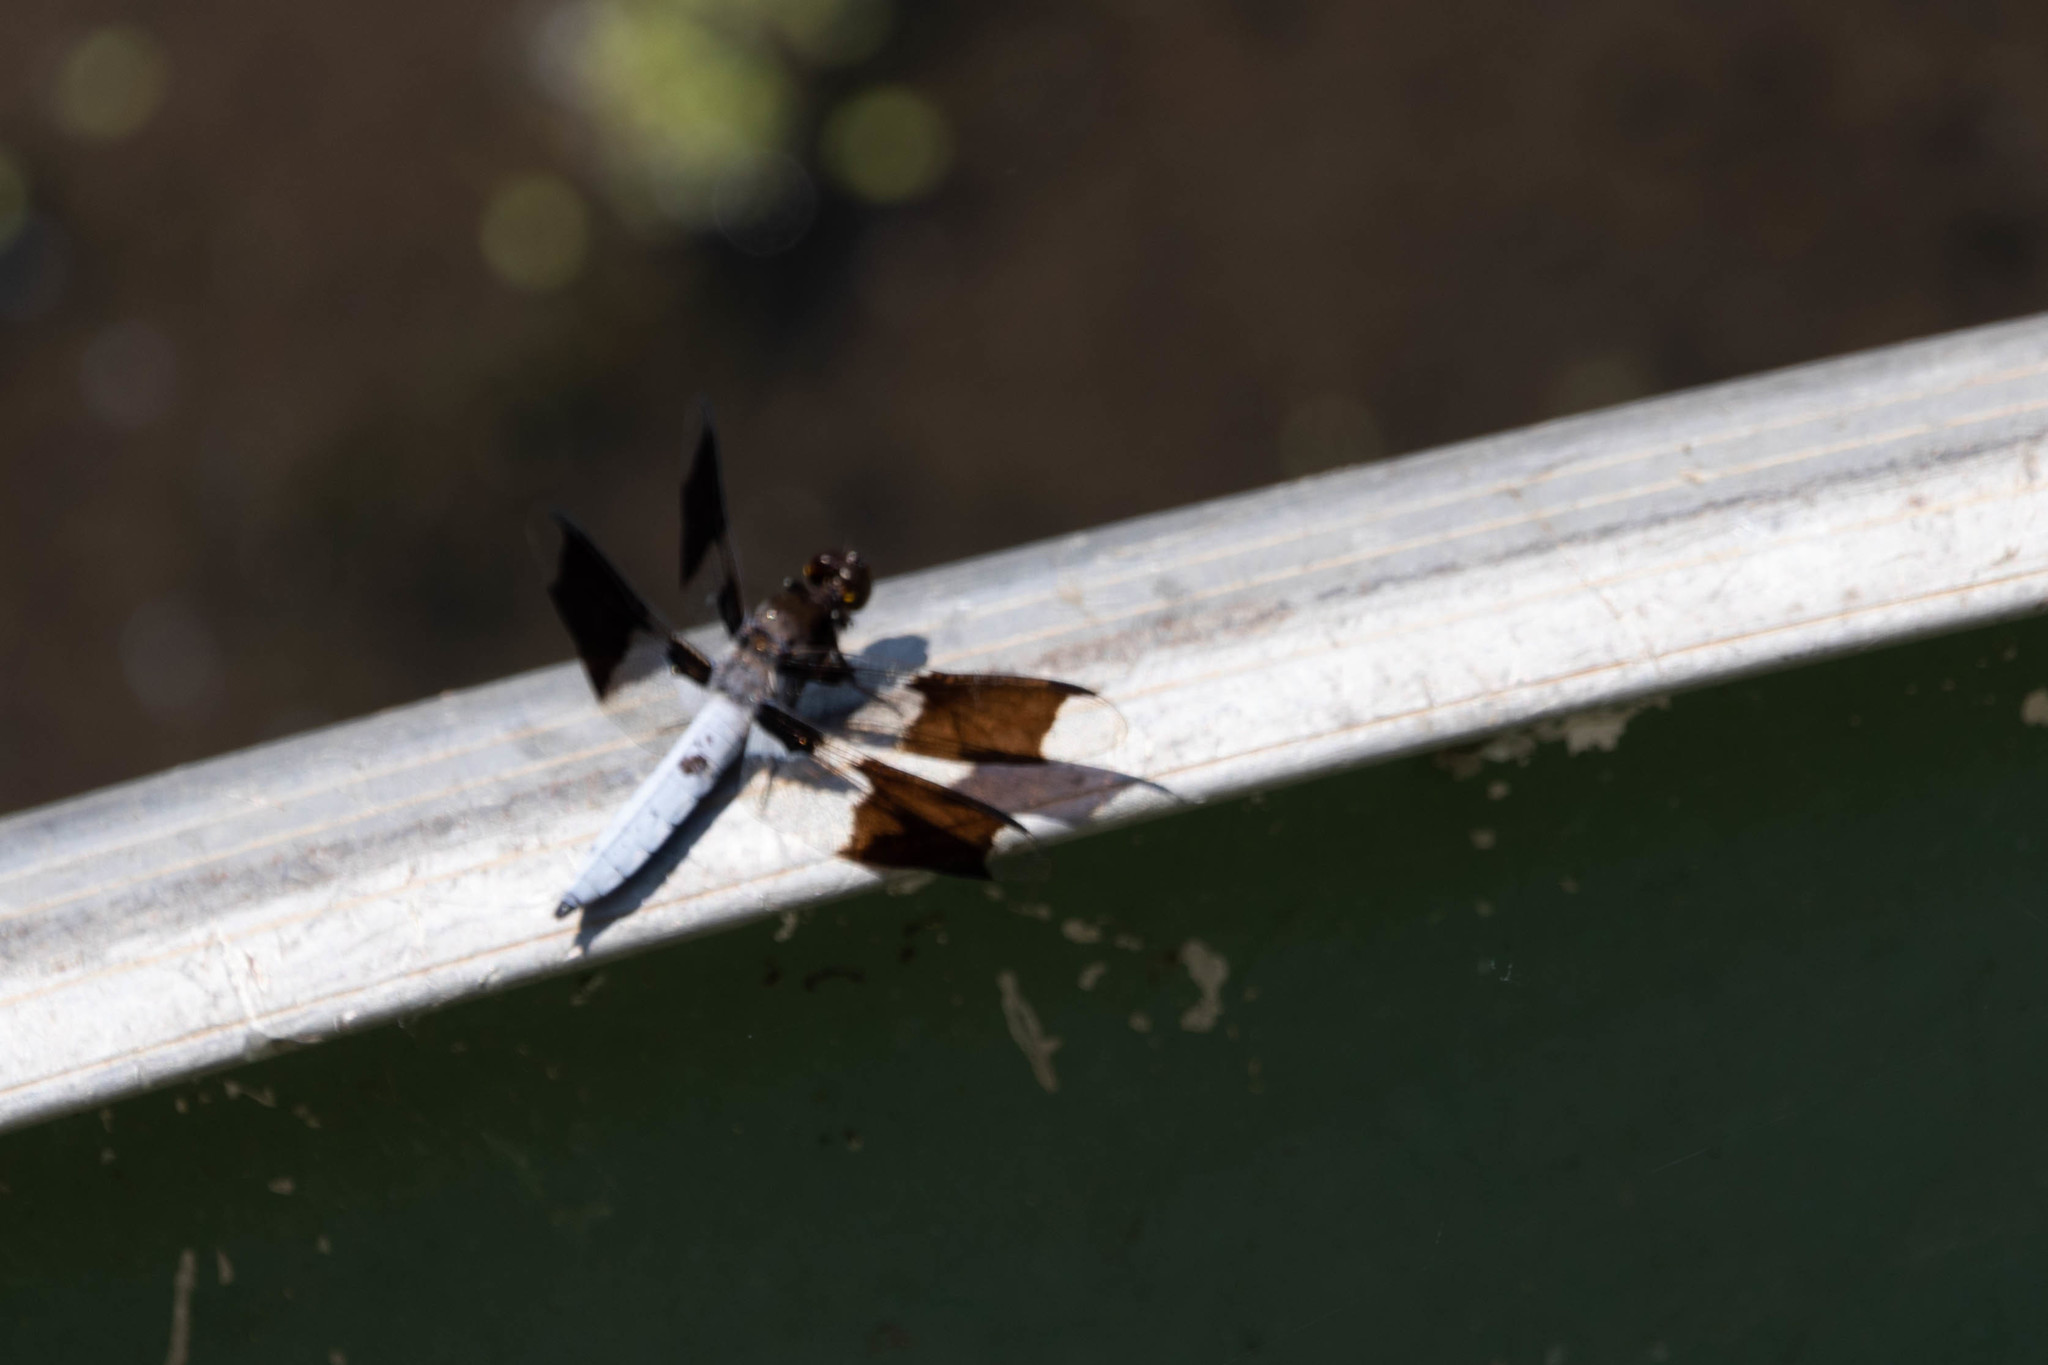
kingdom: Animalia
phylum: Arthropoda
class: Insecta
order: Odonata
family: Libellulidae
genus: Plathemis
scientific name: Plathemis lydia
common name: Common whitetail
